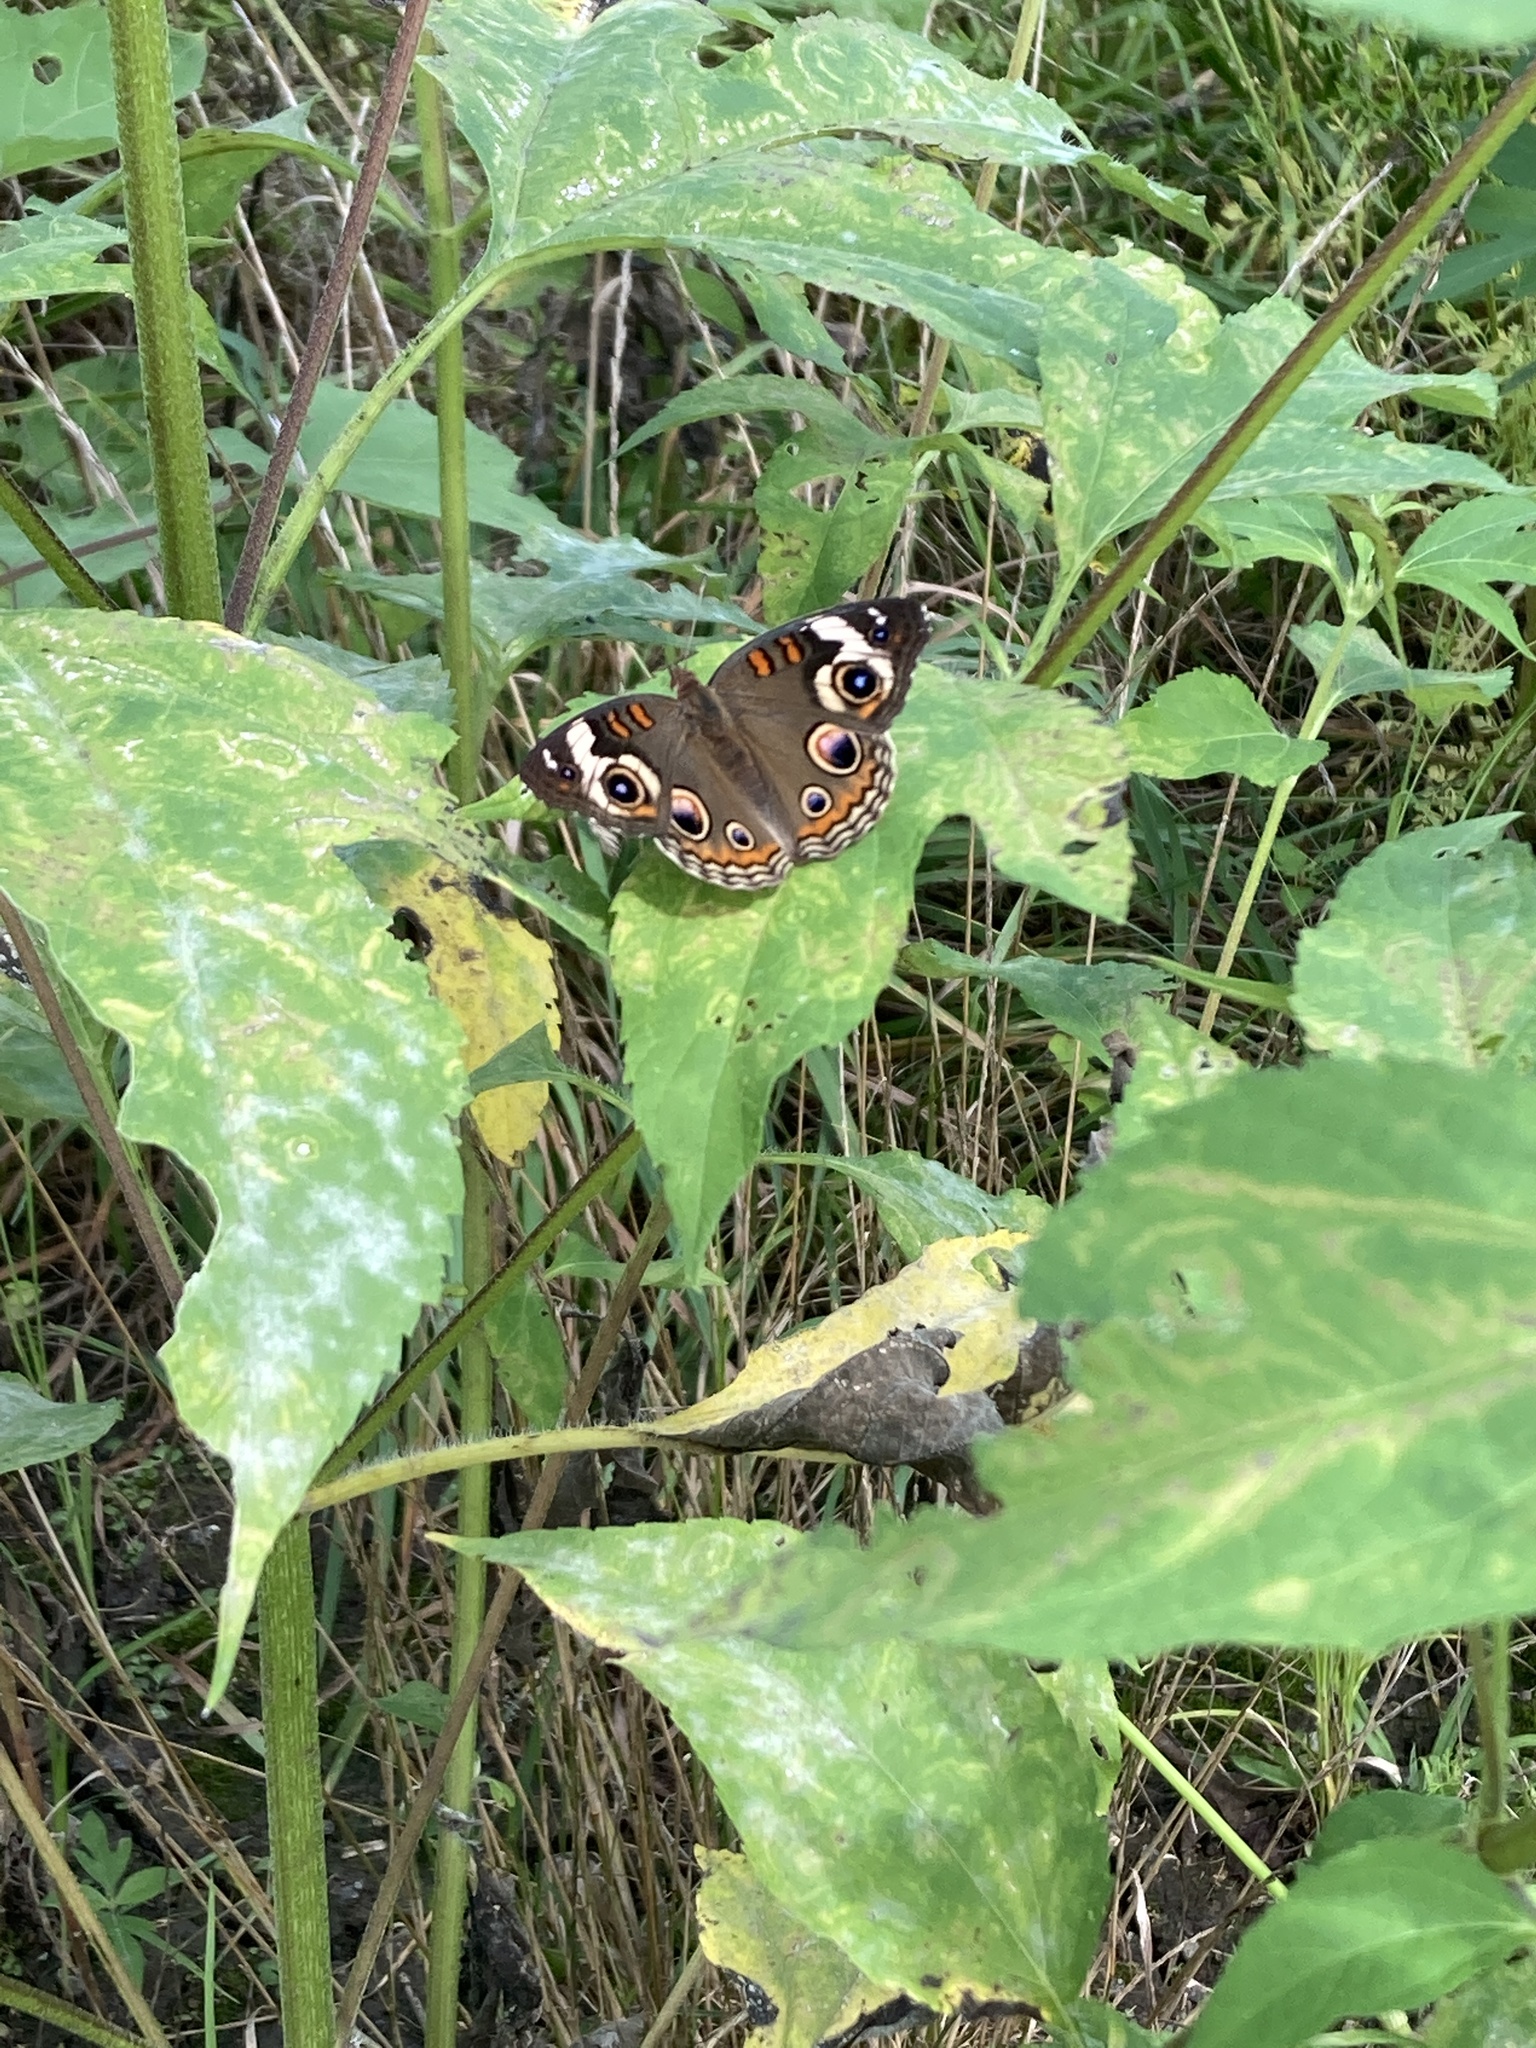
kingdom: Animalia
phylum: Arthropoda
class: Insecta
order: Lepidoptera
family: Nymphalidae
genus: Junonia
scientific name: Junonia coenia
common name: Common buckeye
